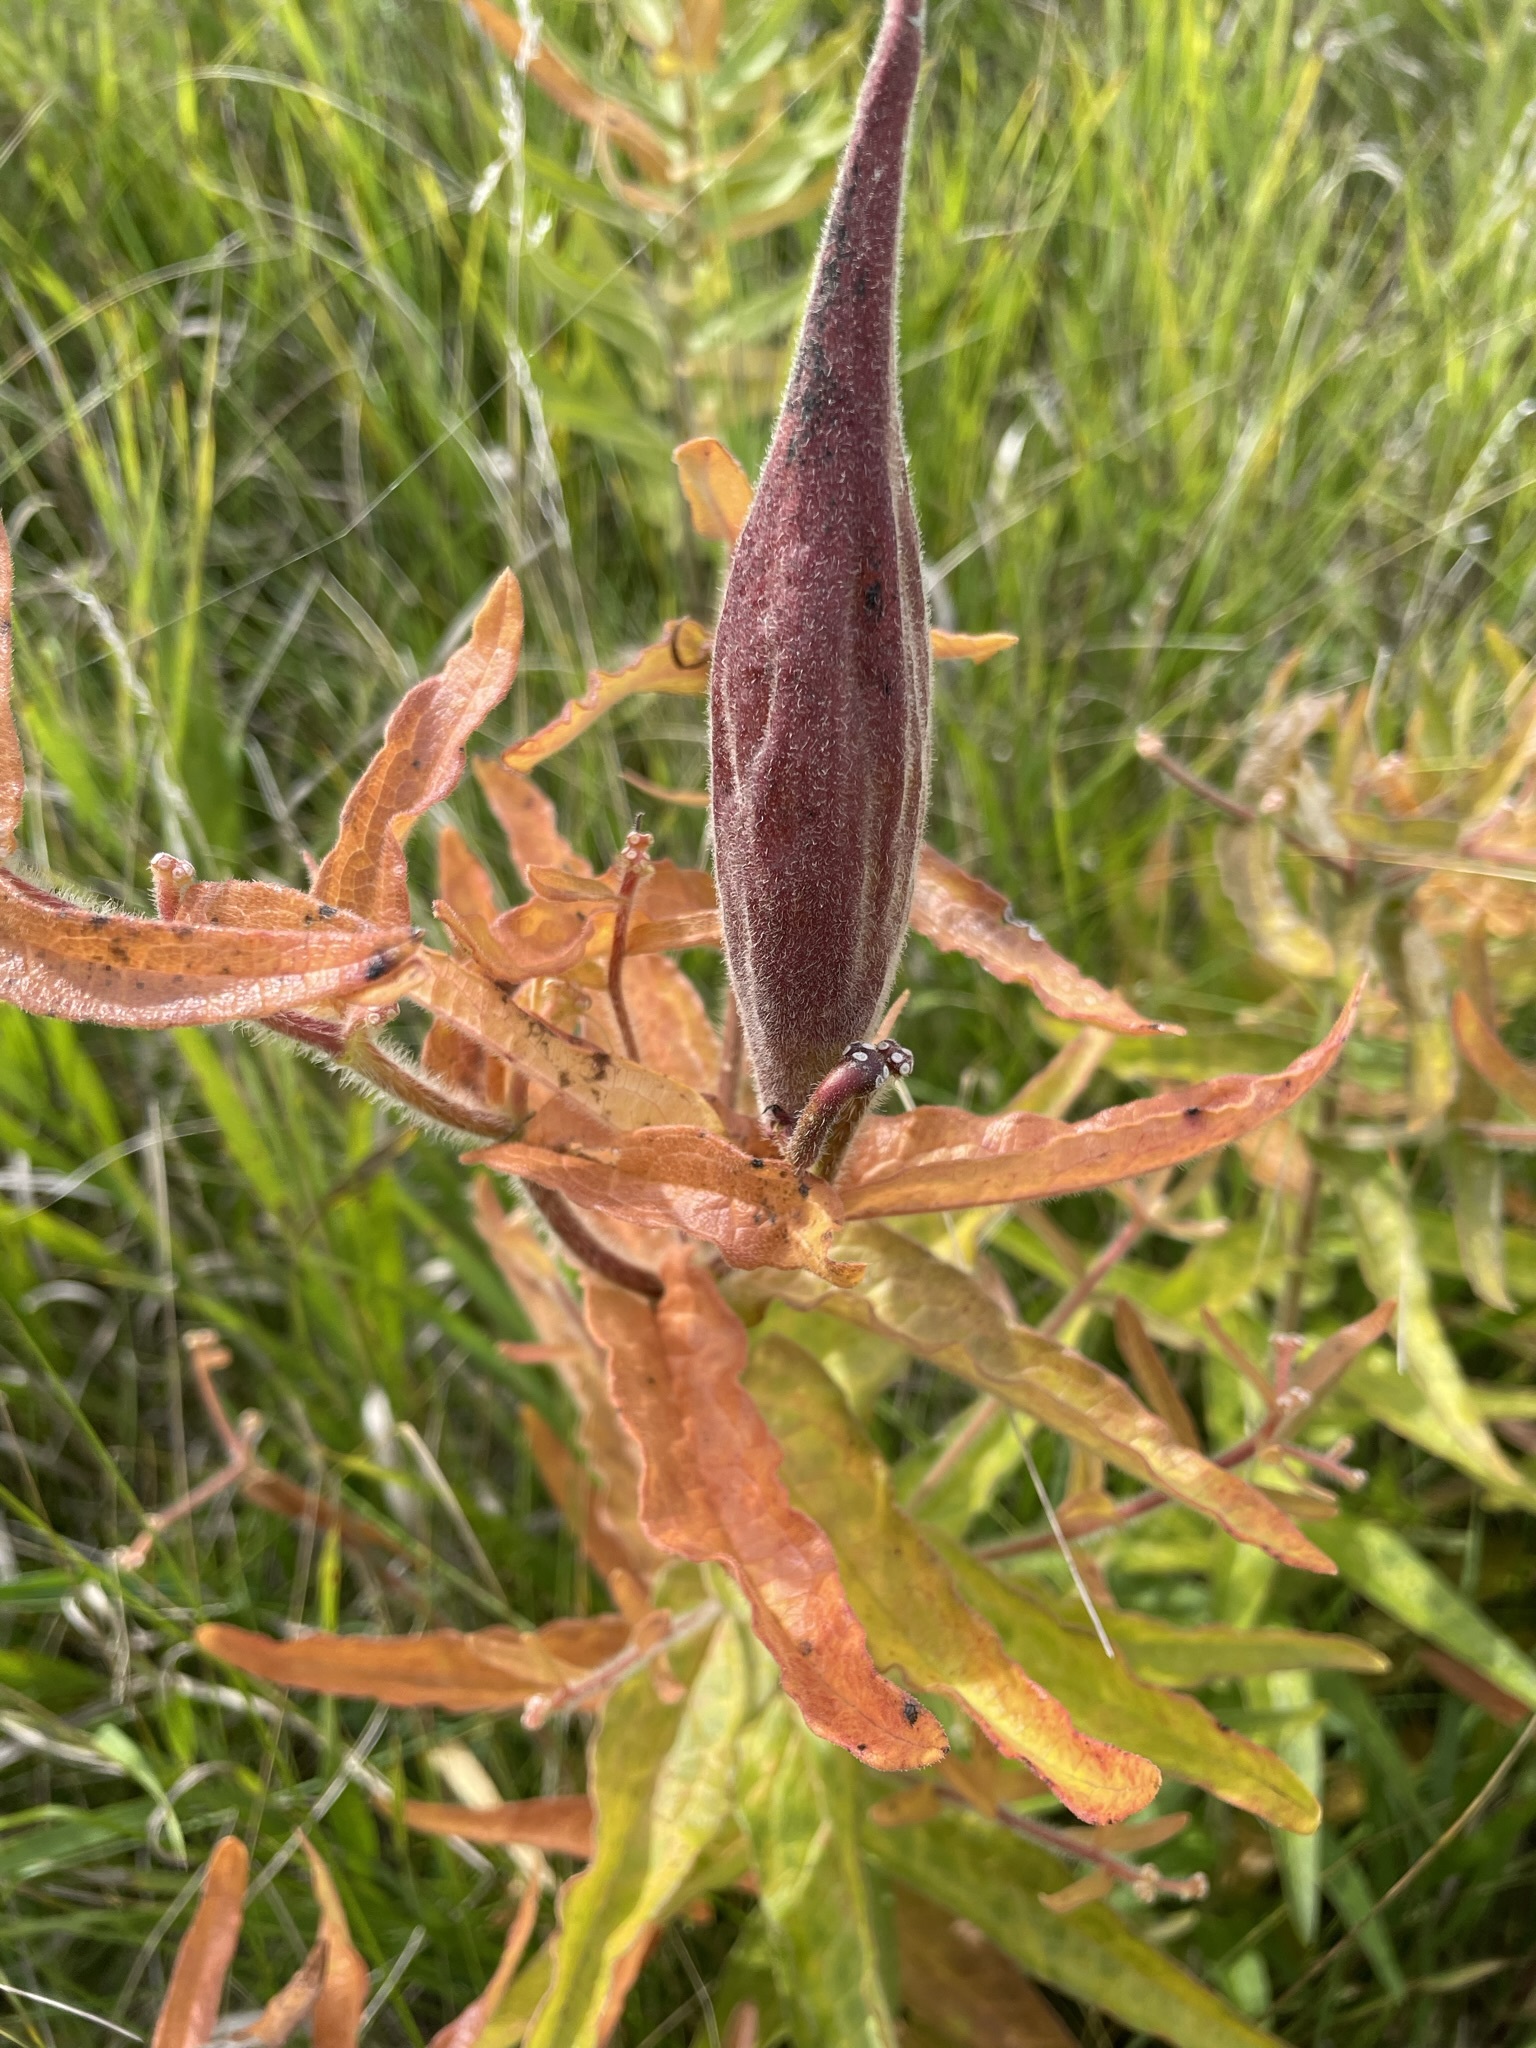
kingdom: Plantae
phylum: Tracheophyta
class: Magnoliopsida
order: Gentianales
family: Apocynaceae
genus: Asclepias
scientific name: Asclepias tuberosa
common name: Butterfly milkweed
